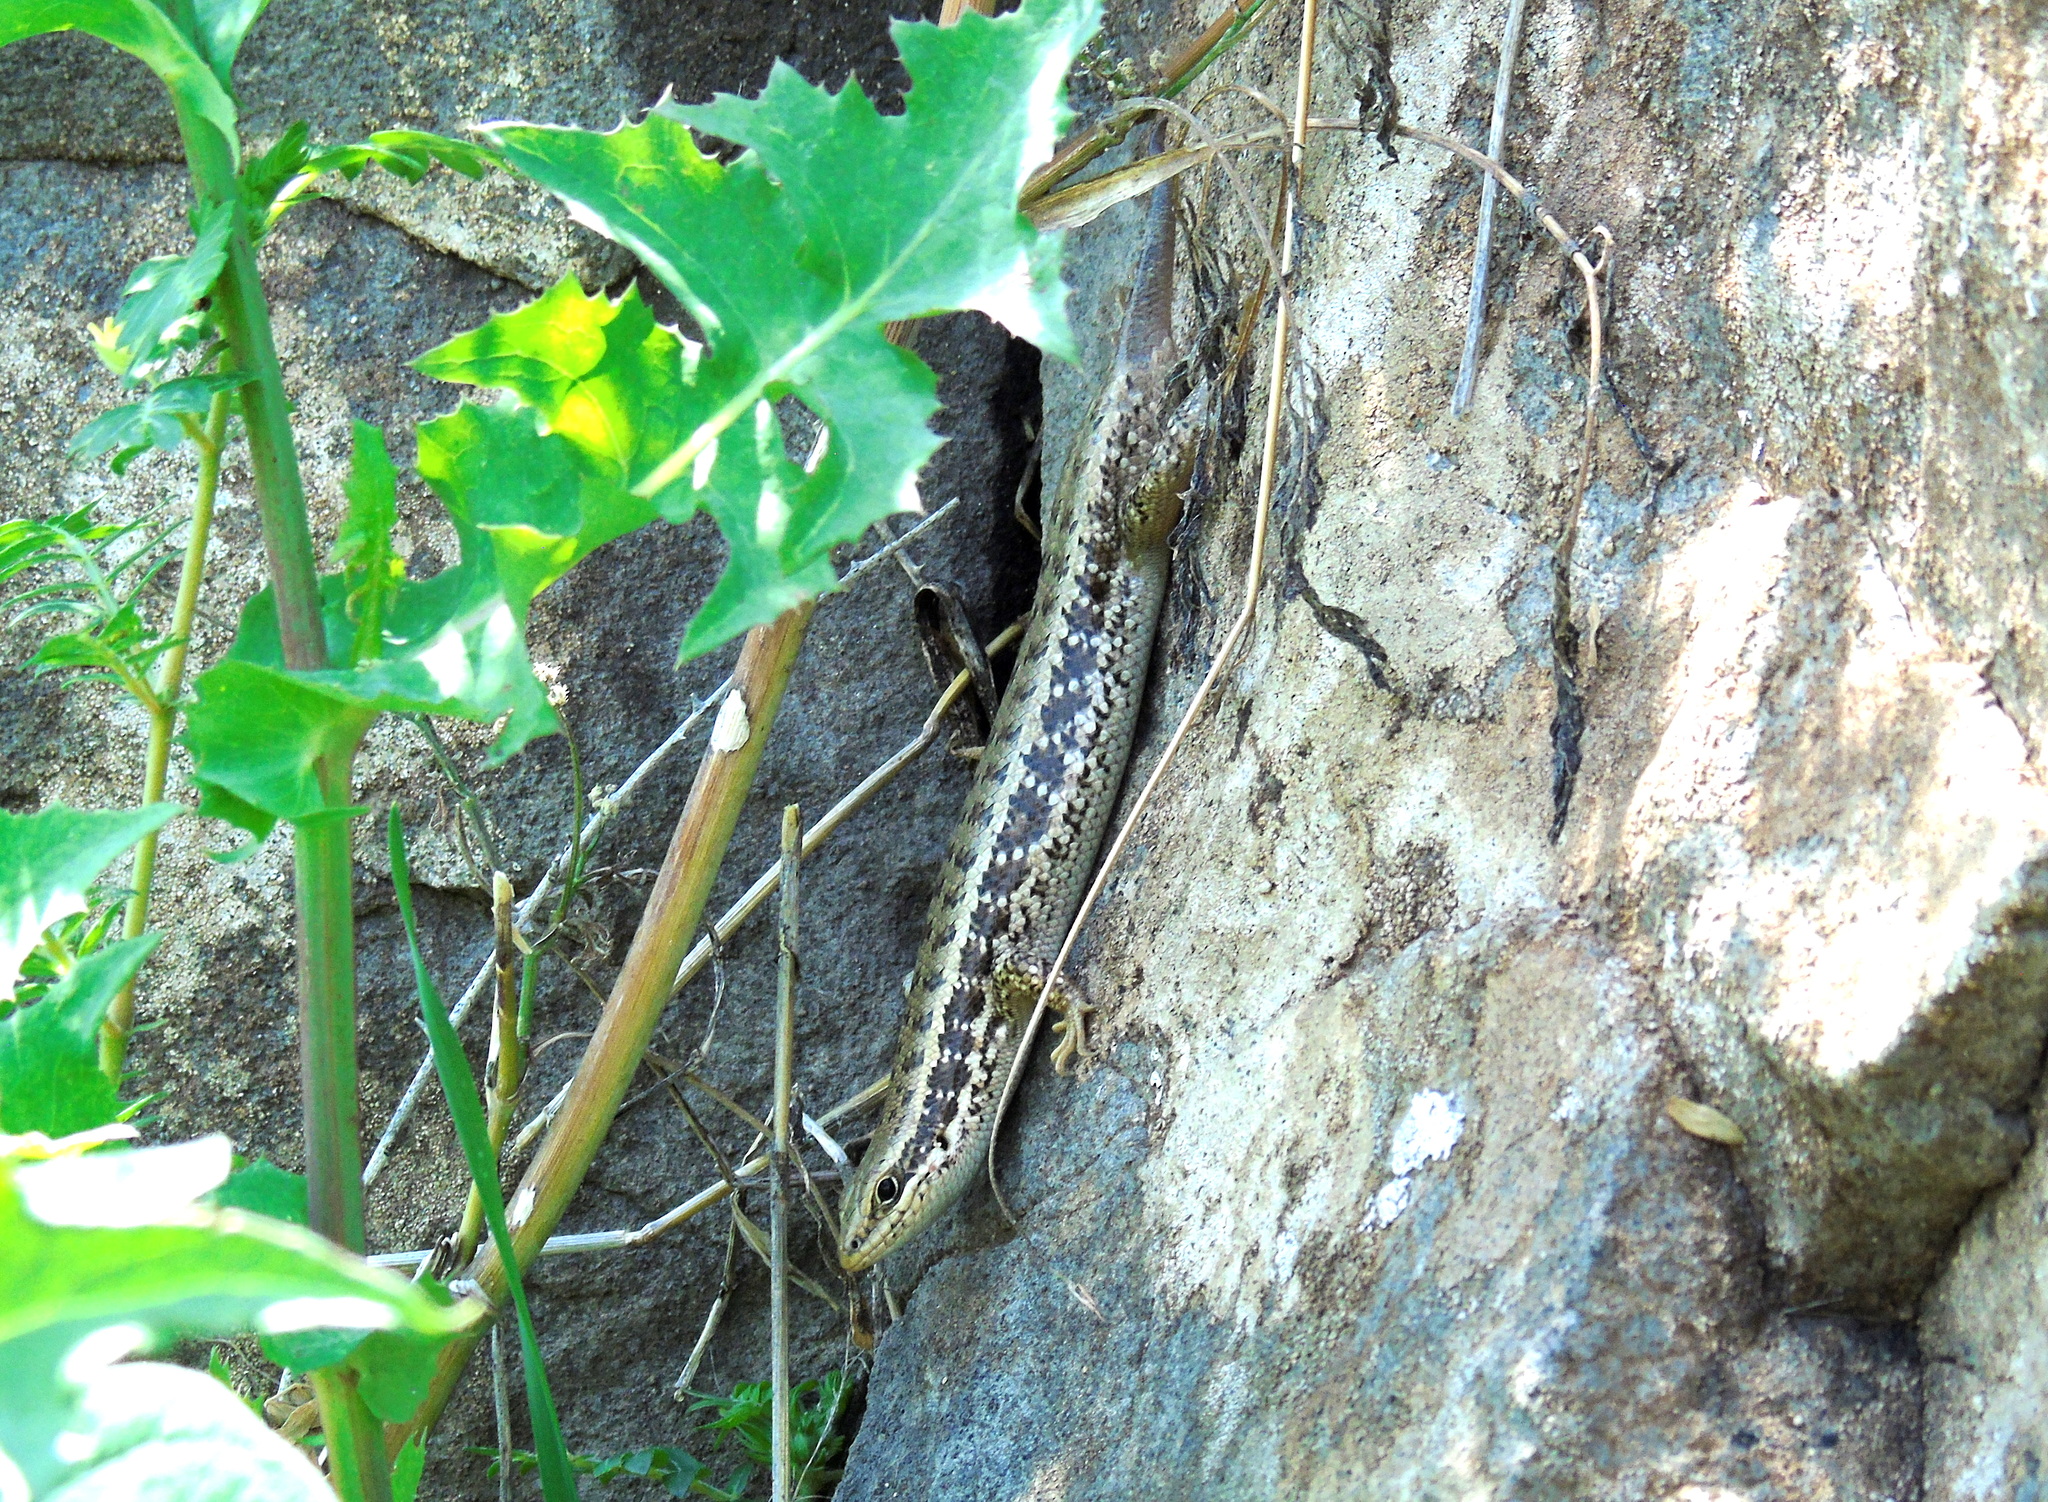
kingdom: Animalia
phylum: Chordata
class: Squamata
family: Scincidae
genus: Heremites
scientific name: Heremites auratus
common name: Golden grass mabuya
